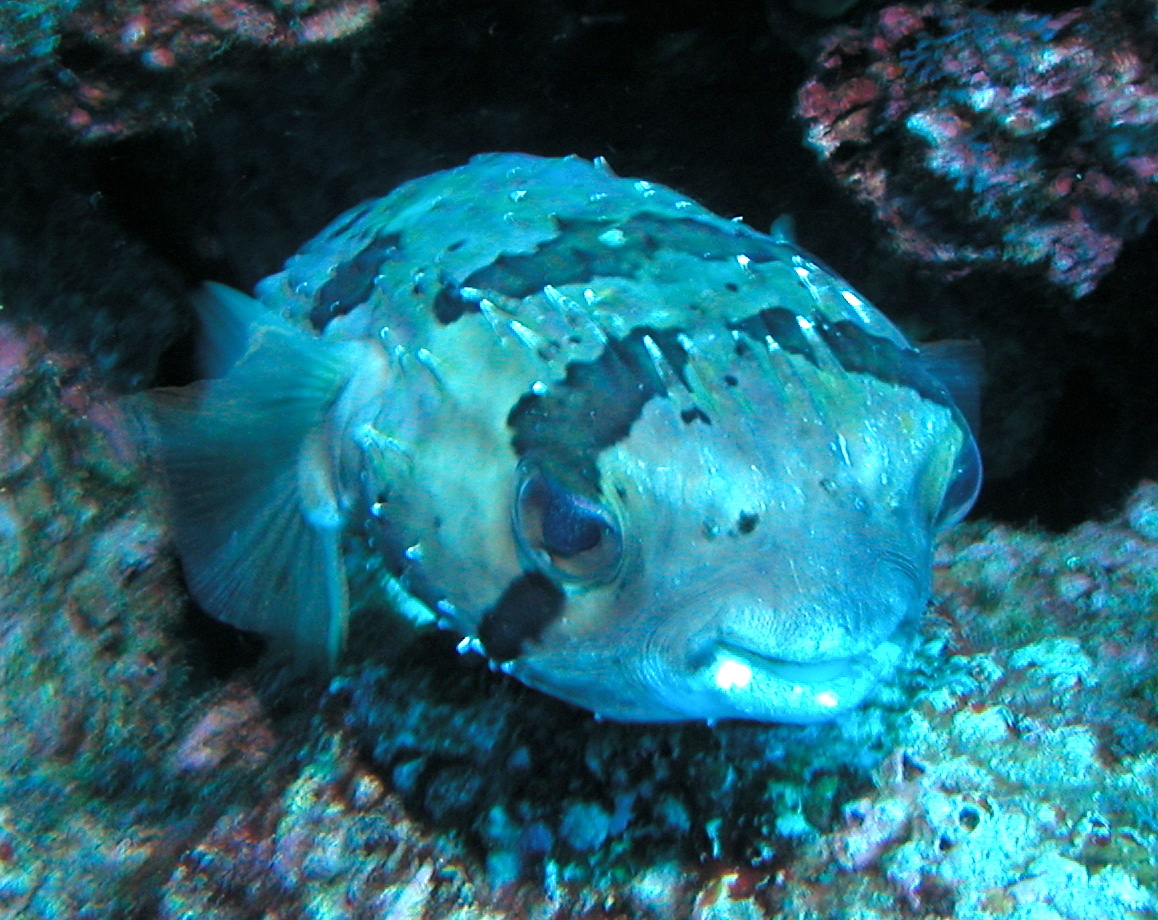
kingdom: Animalia
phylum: Chordata
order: Tetraodontiformes
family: Diodontidae
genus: Diodon
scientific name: Diodon holocanthus
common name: Balloonfish
